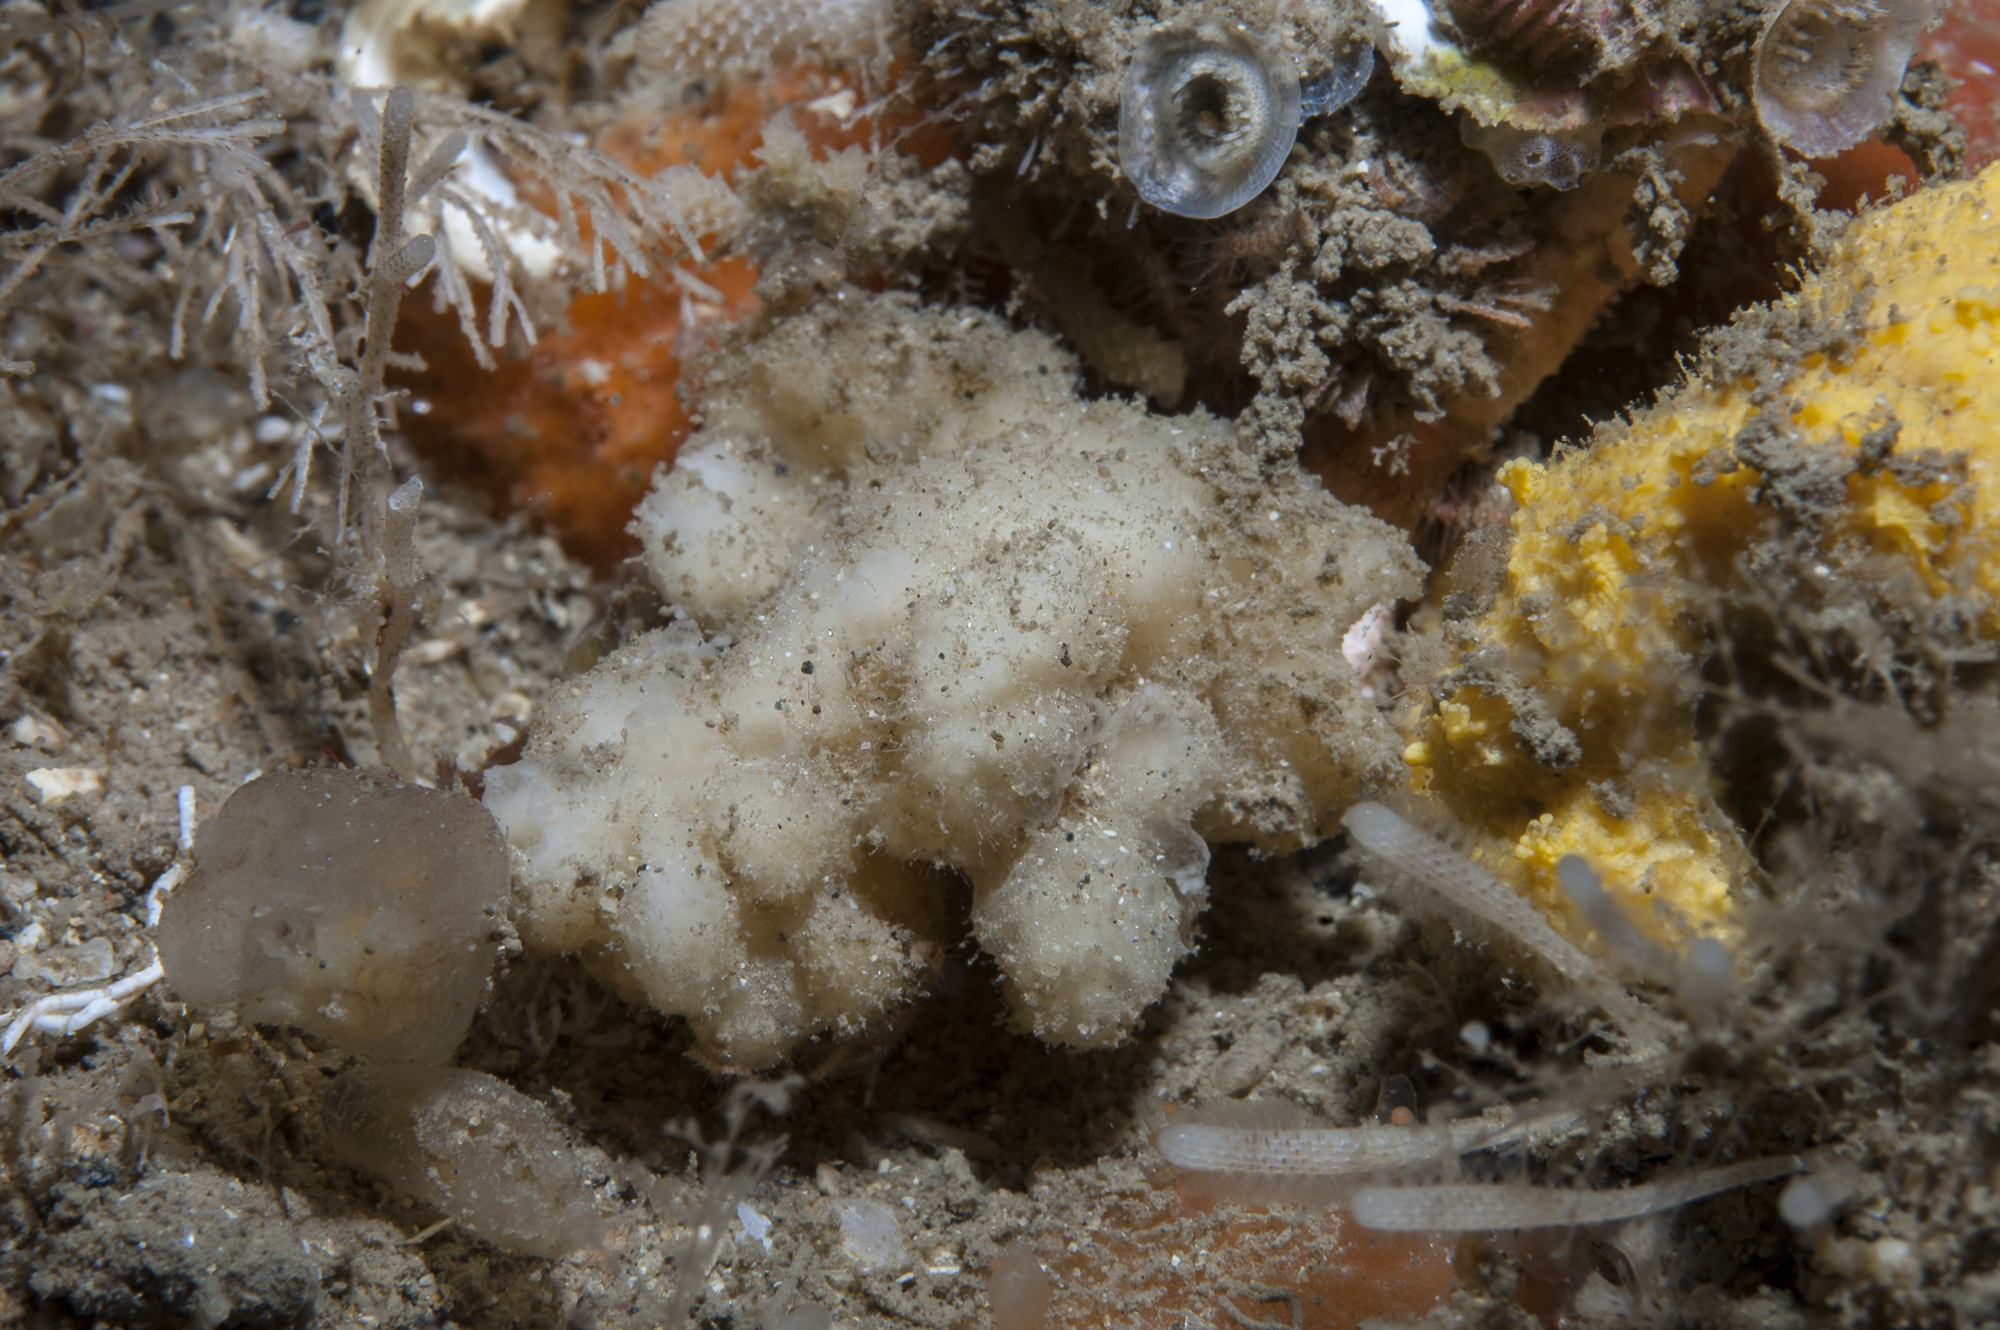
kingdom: Animalia
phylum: Porifera
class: Demospongiae
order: Axinellida
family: Axinellidae
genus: Axinella
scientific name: Axinella pyramidata
